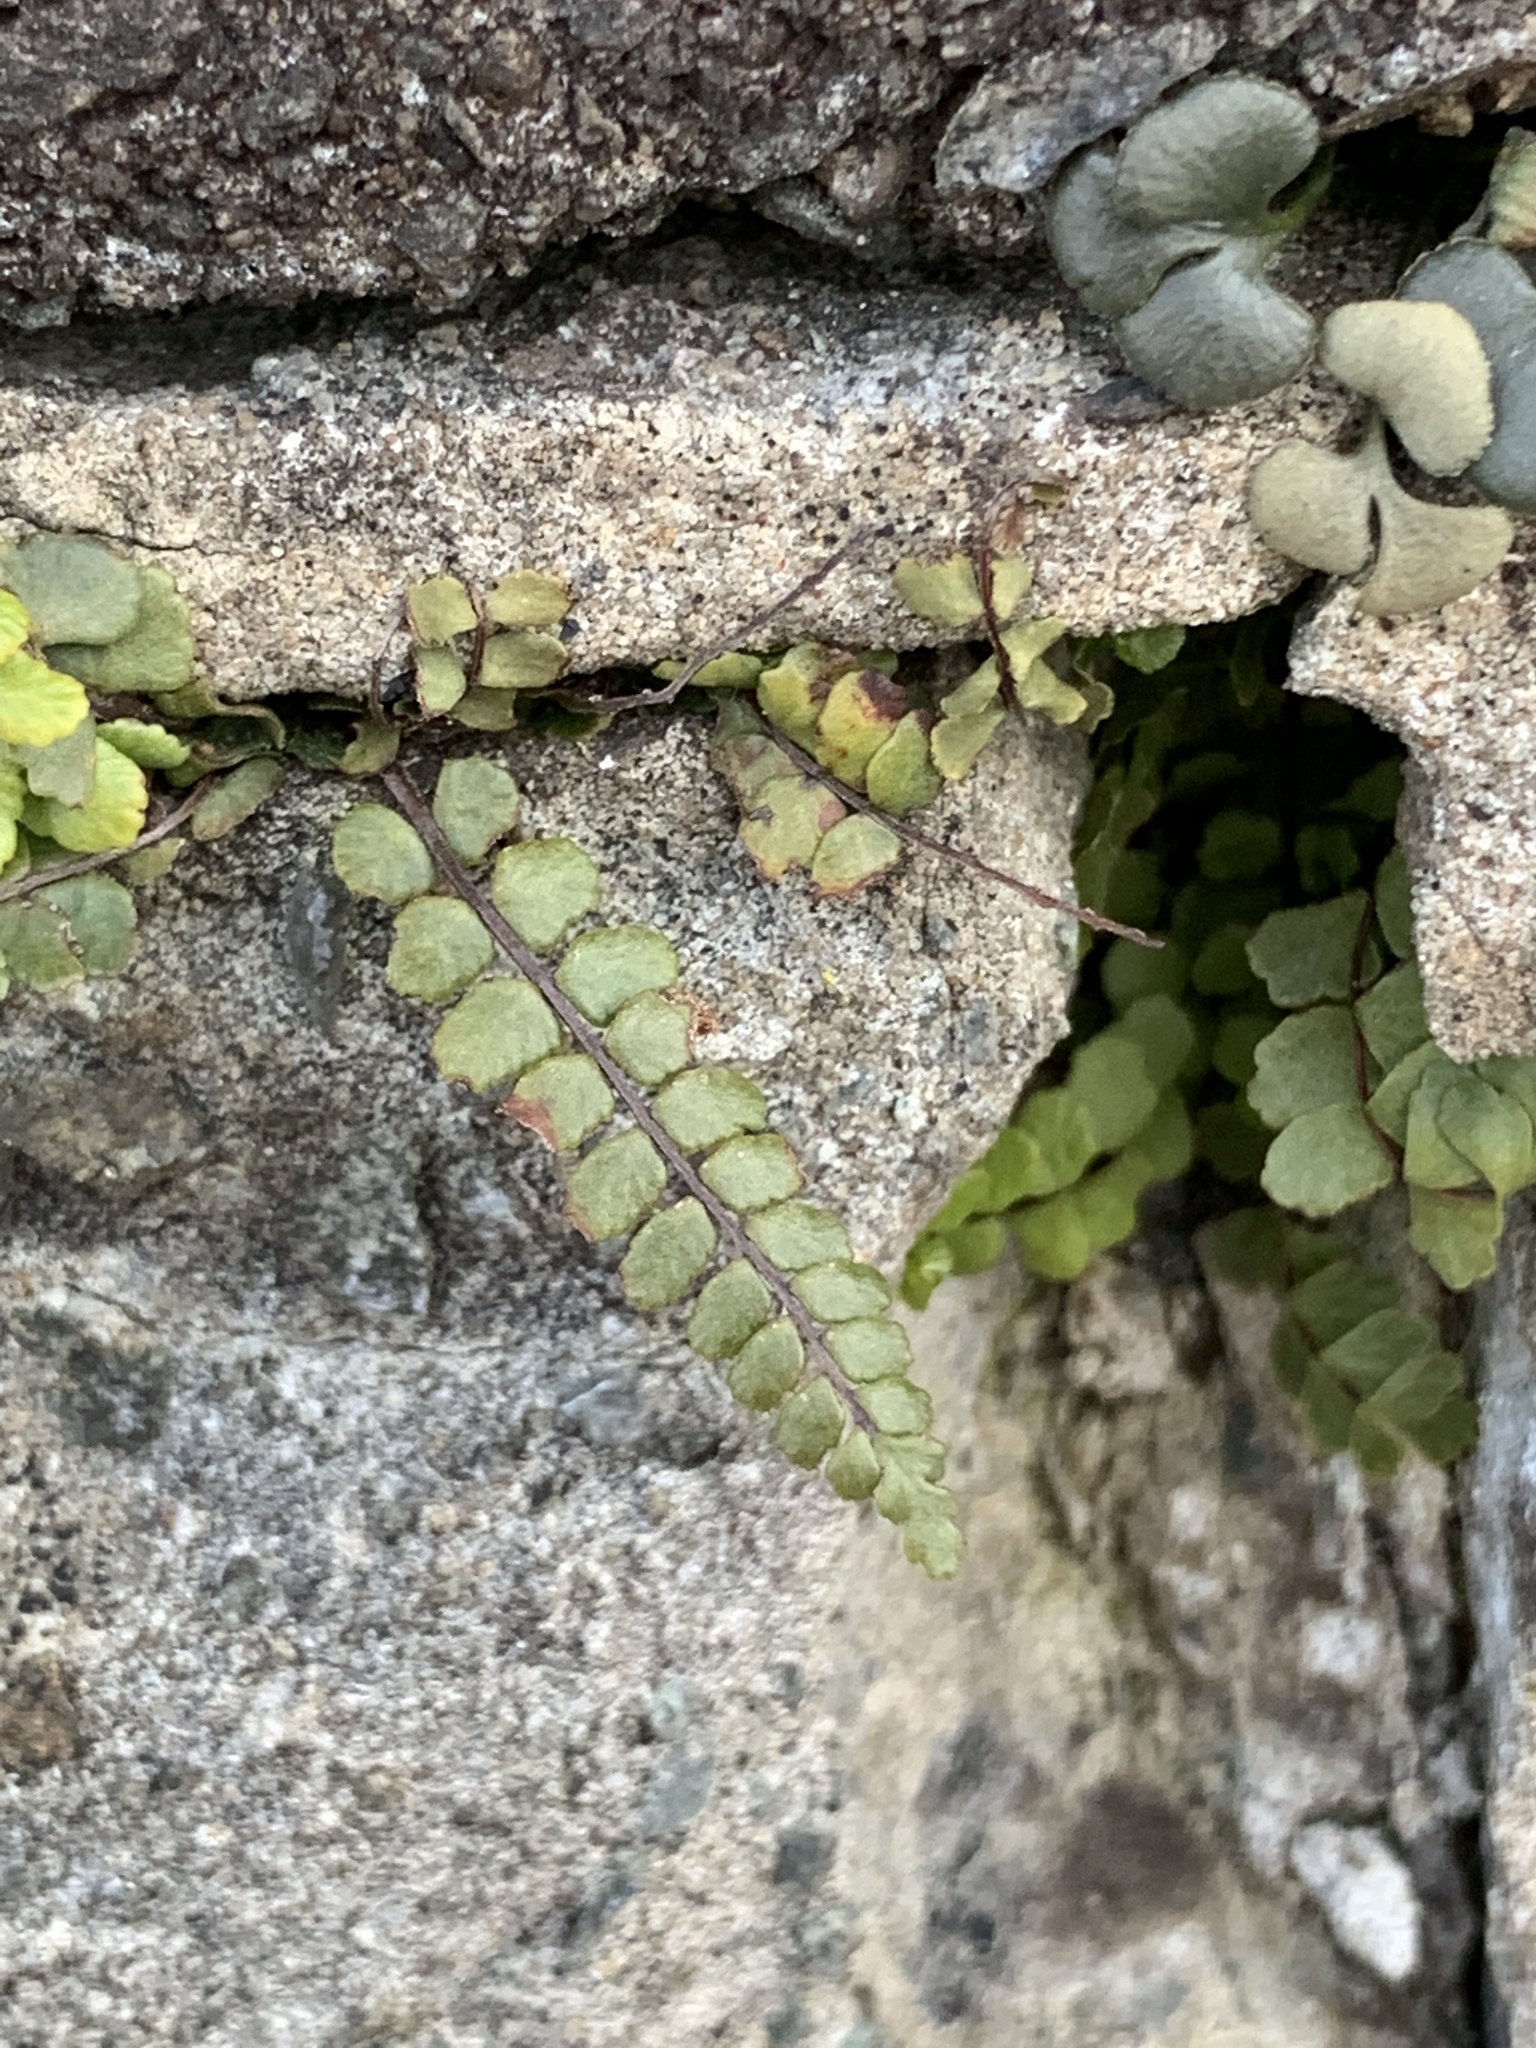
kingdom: Plantae
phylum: Tracheophyta
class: Polypodiopsida
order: Polypodiales
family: Aspleniaceae
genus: Asplenium
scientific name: Asplenium trichomanes
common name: Maidenhair spleenwort
